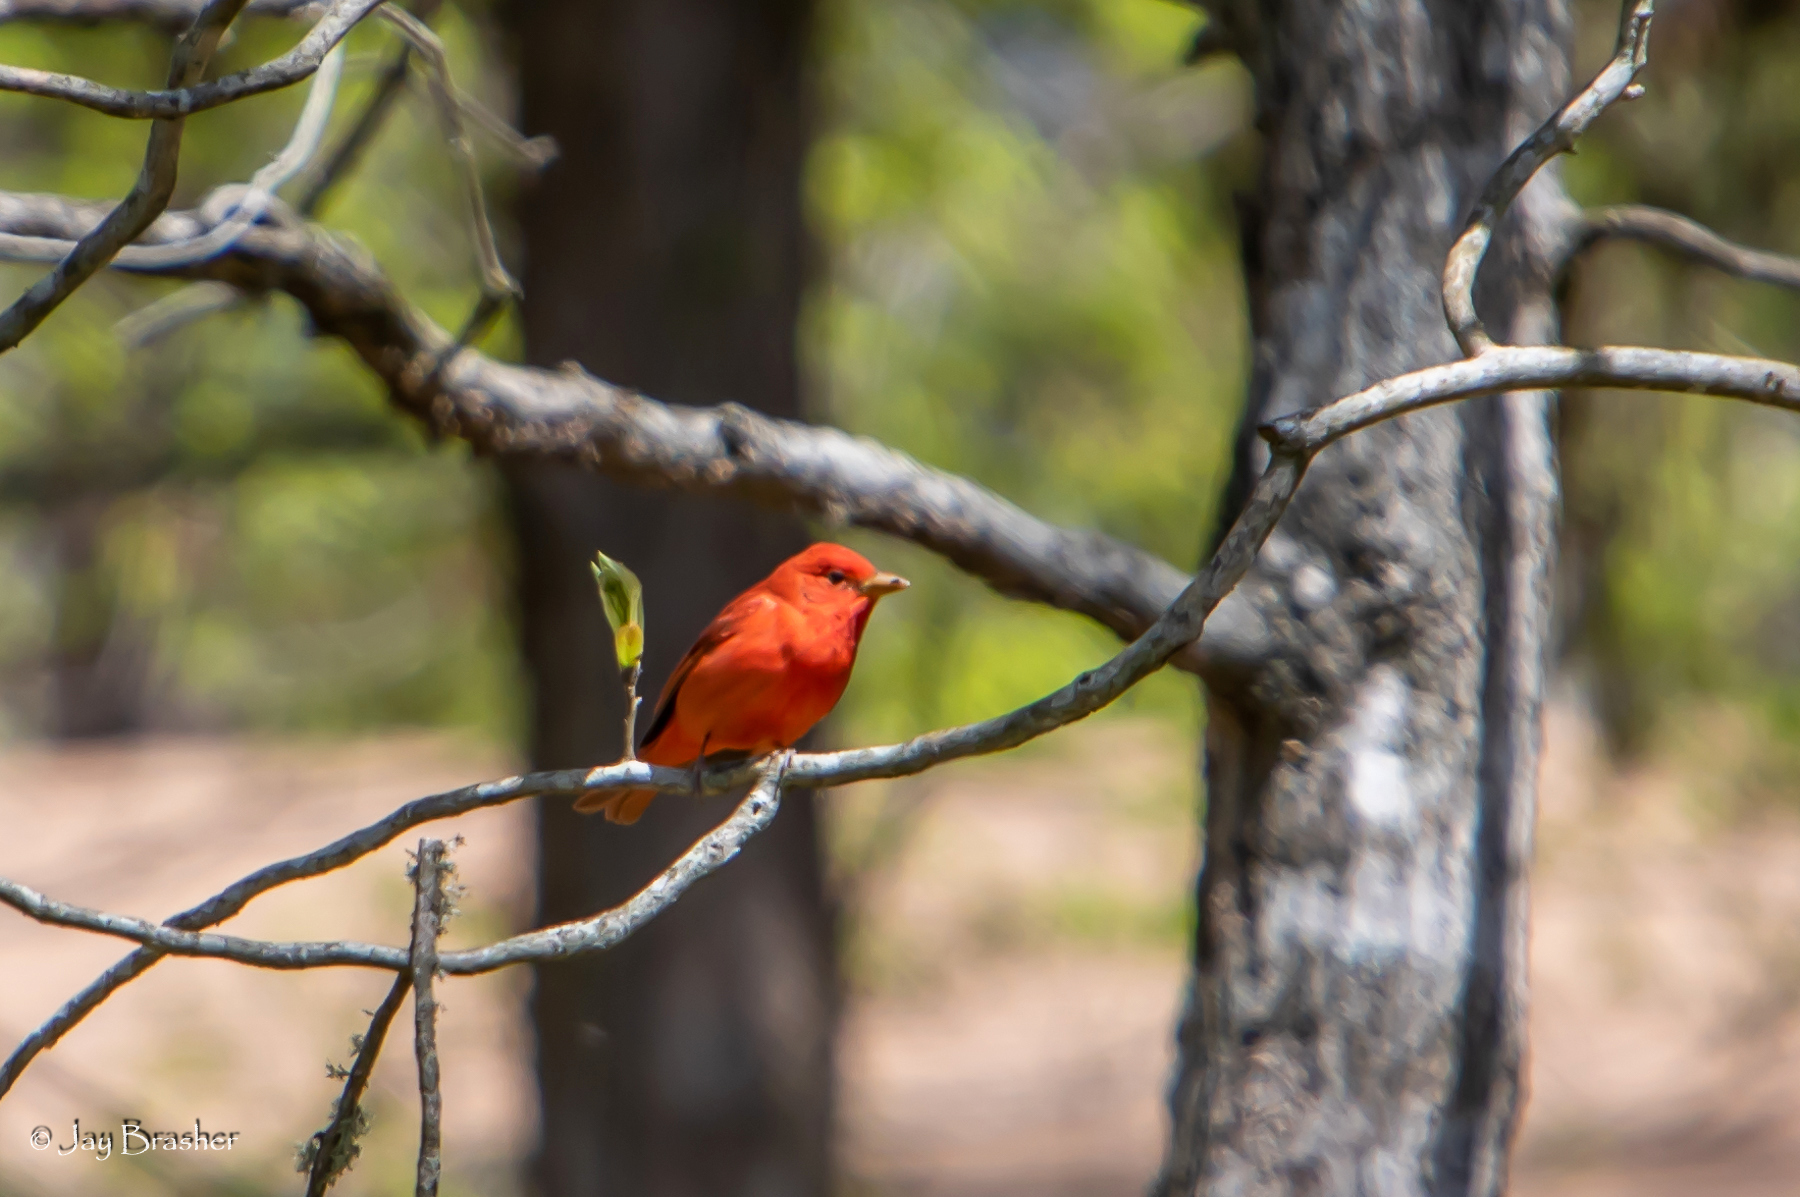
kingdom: Animalia
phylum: Chordata
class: Aves
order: Passeriformes
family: Cardinalidae
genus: Piranga
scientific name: Piranga rubra
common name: Summer tanager
